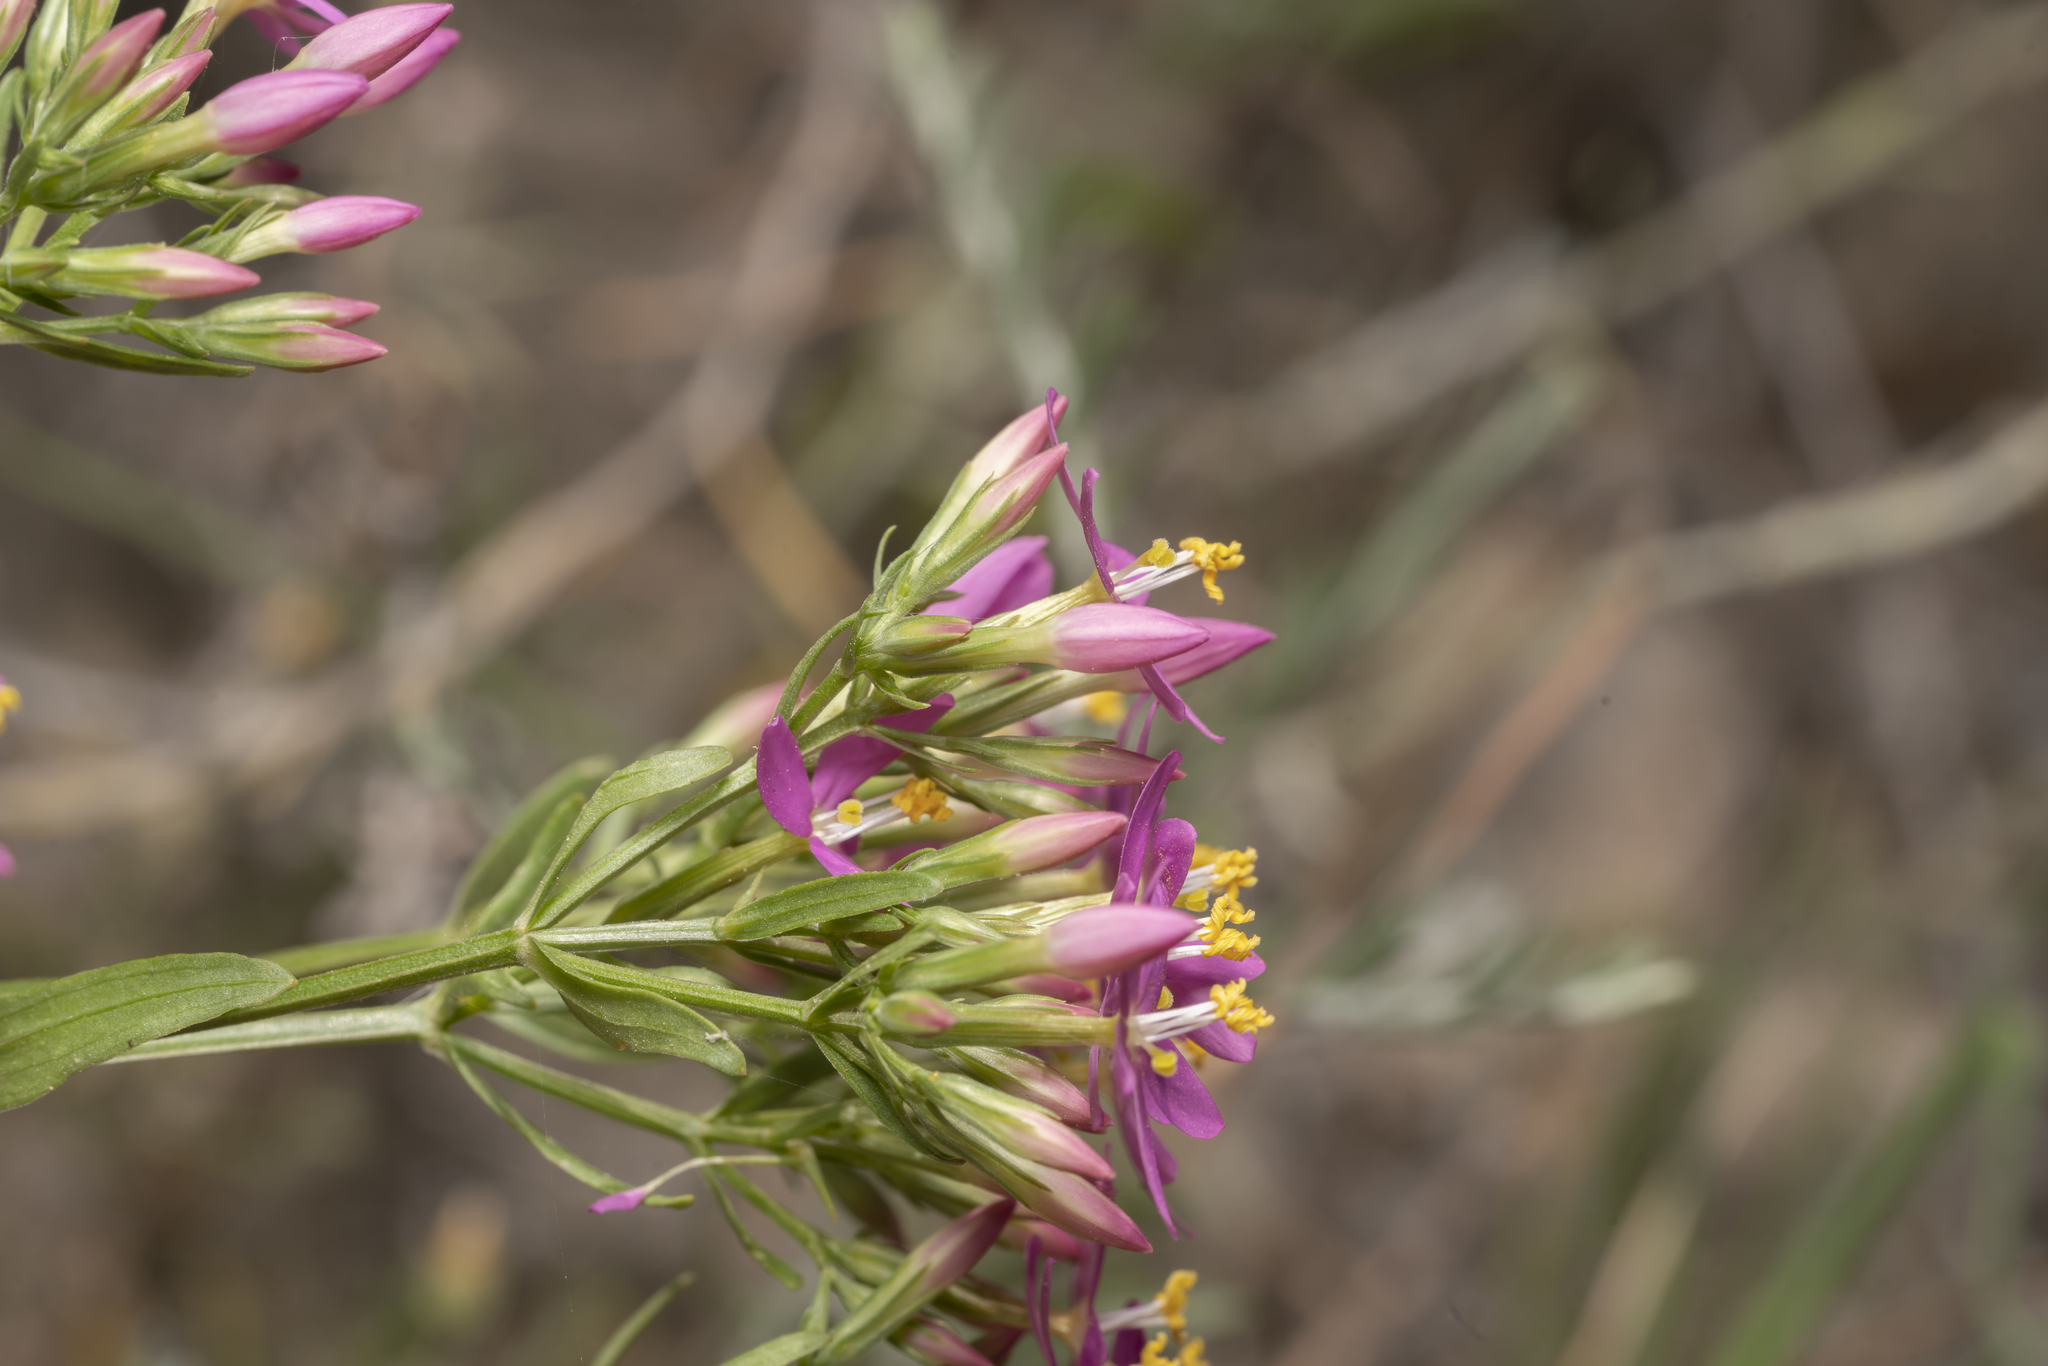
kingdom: Plantae
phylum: Tracheophyta
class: Magnoliopsida
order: Gentianales
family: Gentianaceae
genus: Centaurium
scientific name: Centaurium erythraea
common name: Common centaury
